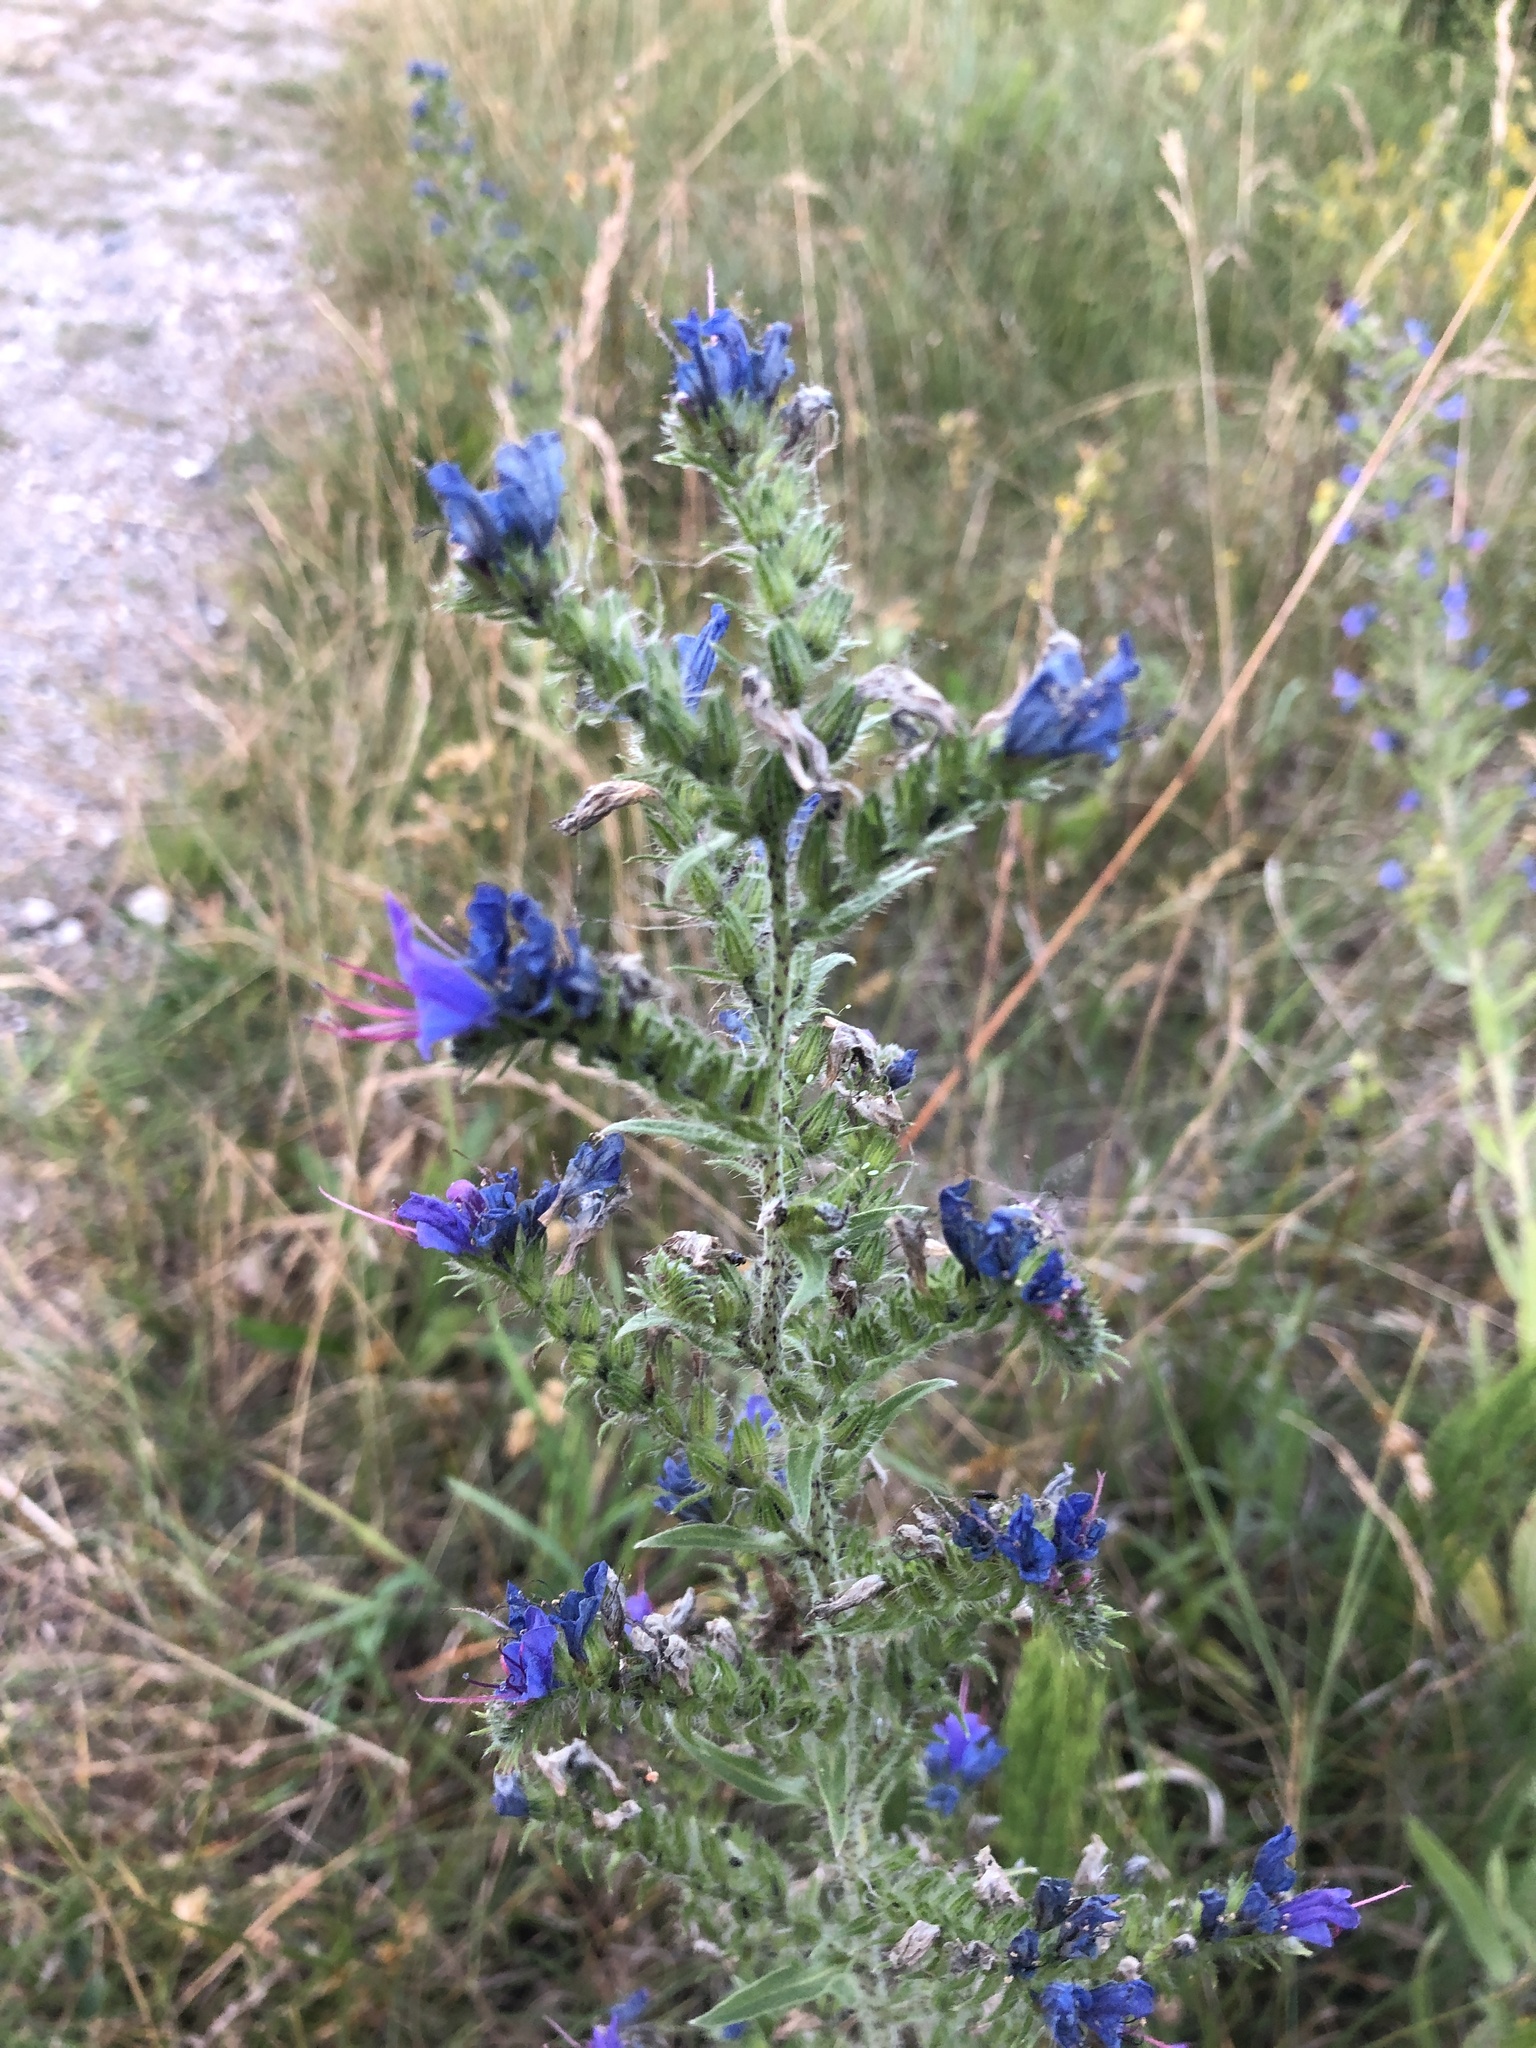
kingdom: Plantae
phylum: Tracheophyta
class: Magnoliopsida
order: Boraginales
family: Boraginaceae
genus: Echium
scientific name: Echium vulgare
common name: Common viper's bugloss
